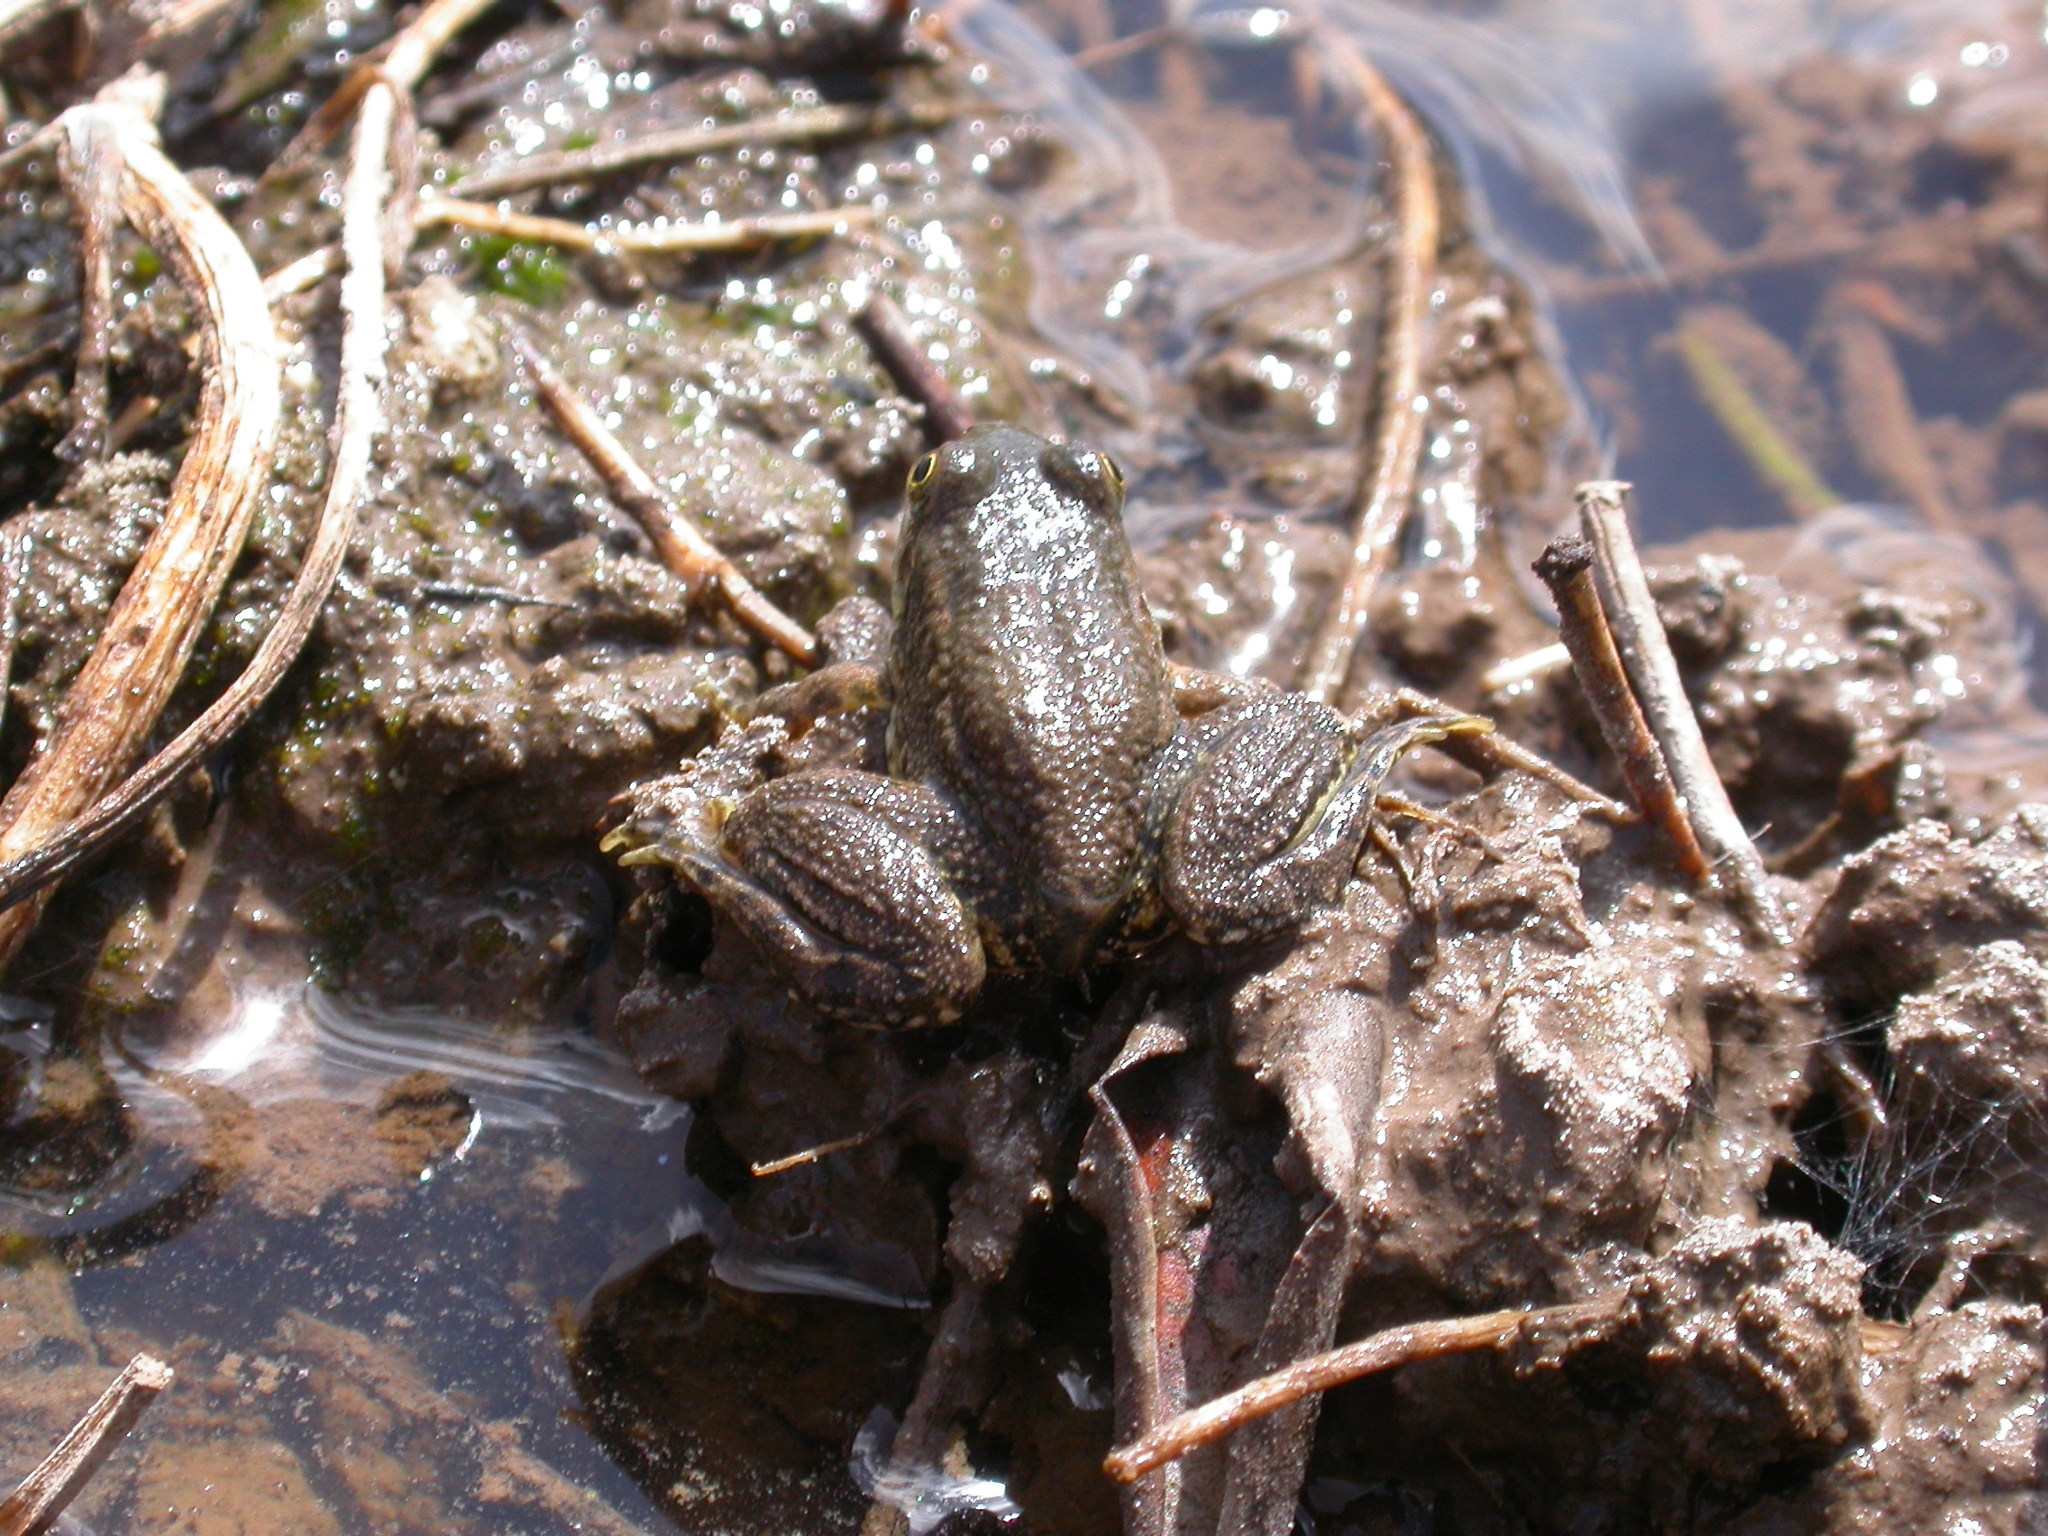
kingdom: Animalia
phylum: Chordata
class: Amphibia
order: Anura
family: Ranidae
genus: Pelophylax
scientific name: Pelophylax saharicus
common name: Sahara frog
